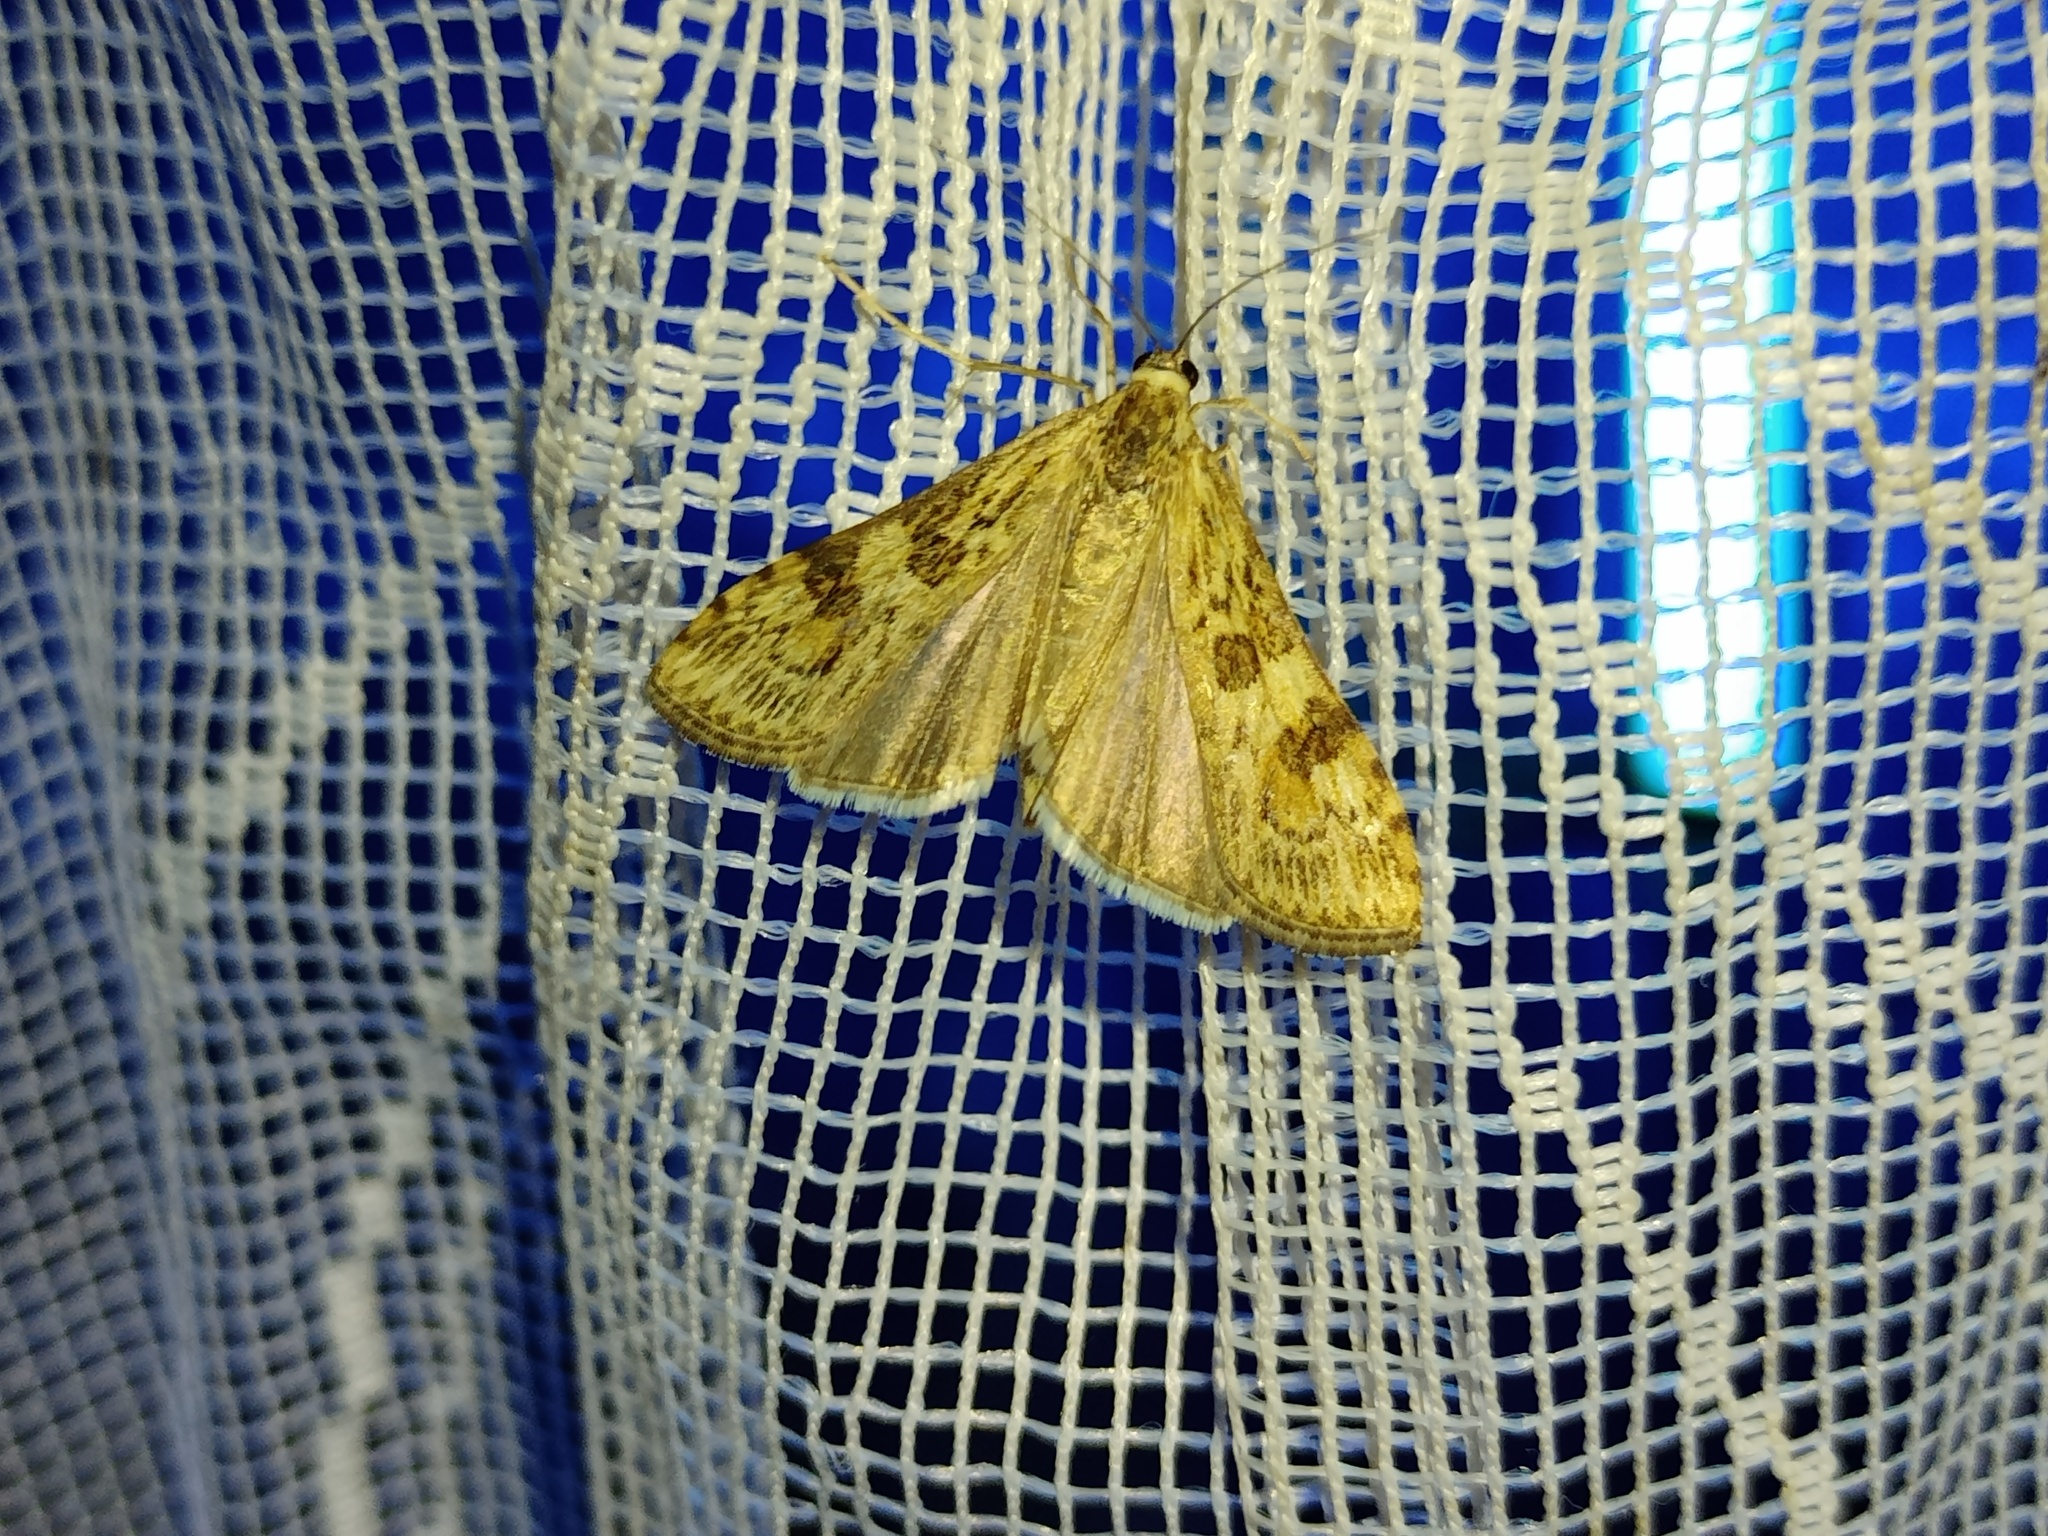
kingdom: Animalia
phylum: Arthropoda
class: Insecta
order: Lepidoptera
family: Crambidae
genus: Nomophila
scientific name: Nomophila noctuella
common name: Rush veneer
